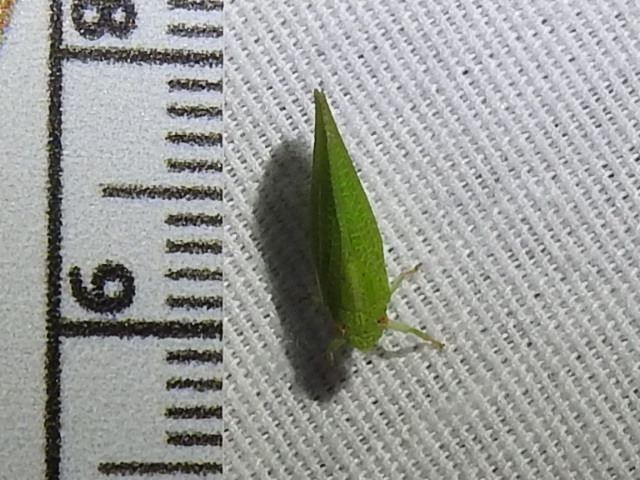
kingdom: Animalia
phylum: Arthropoda
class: Insecta
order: Hemiptera
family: Acanaloniidae
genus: Acanalonia
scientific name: Acanalonia conica
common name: Green cone-headed planthopper
